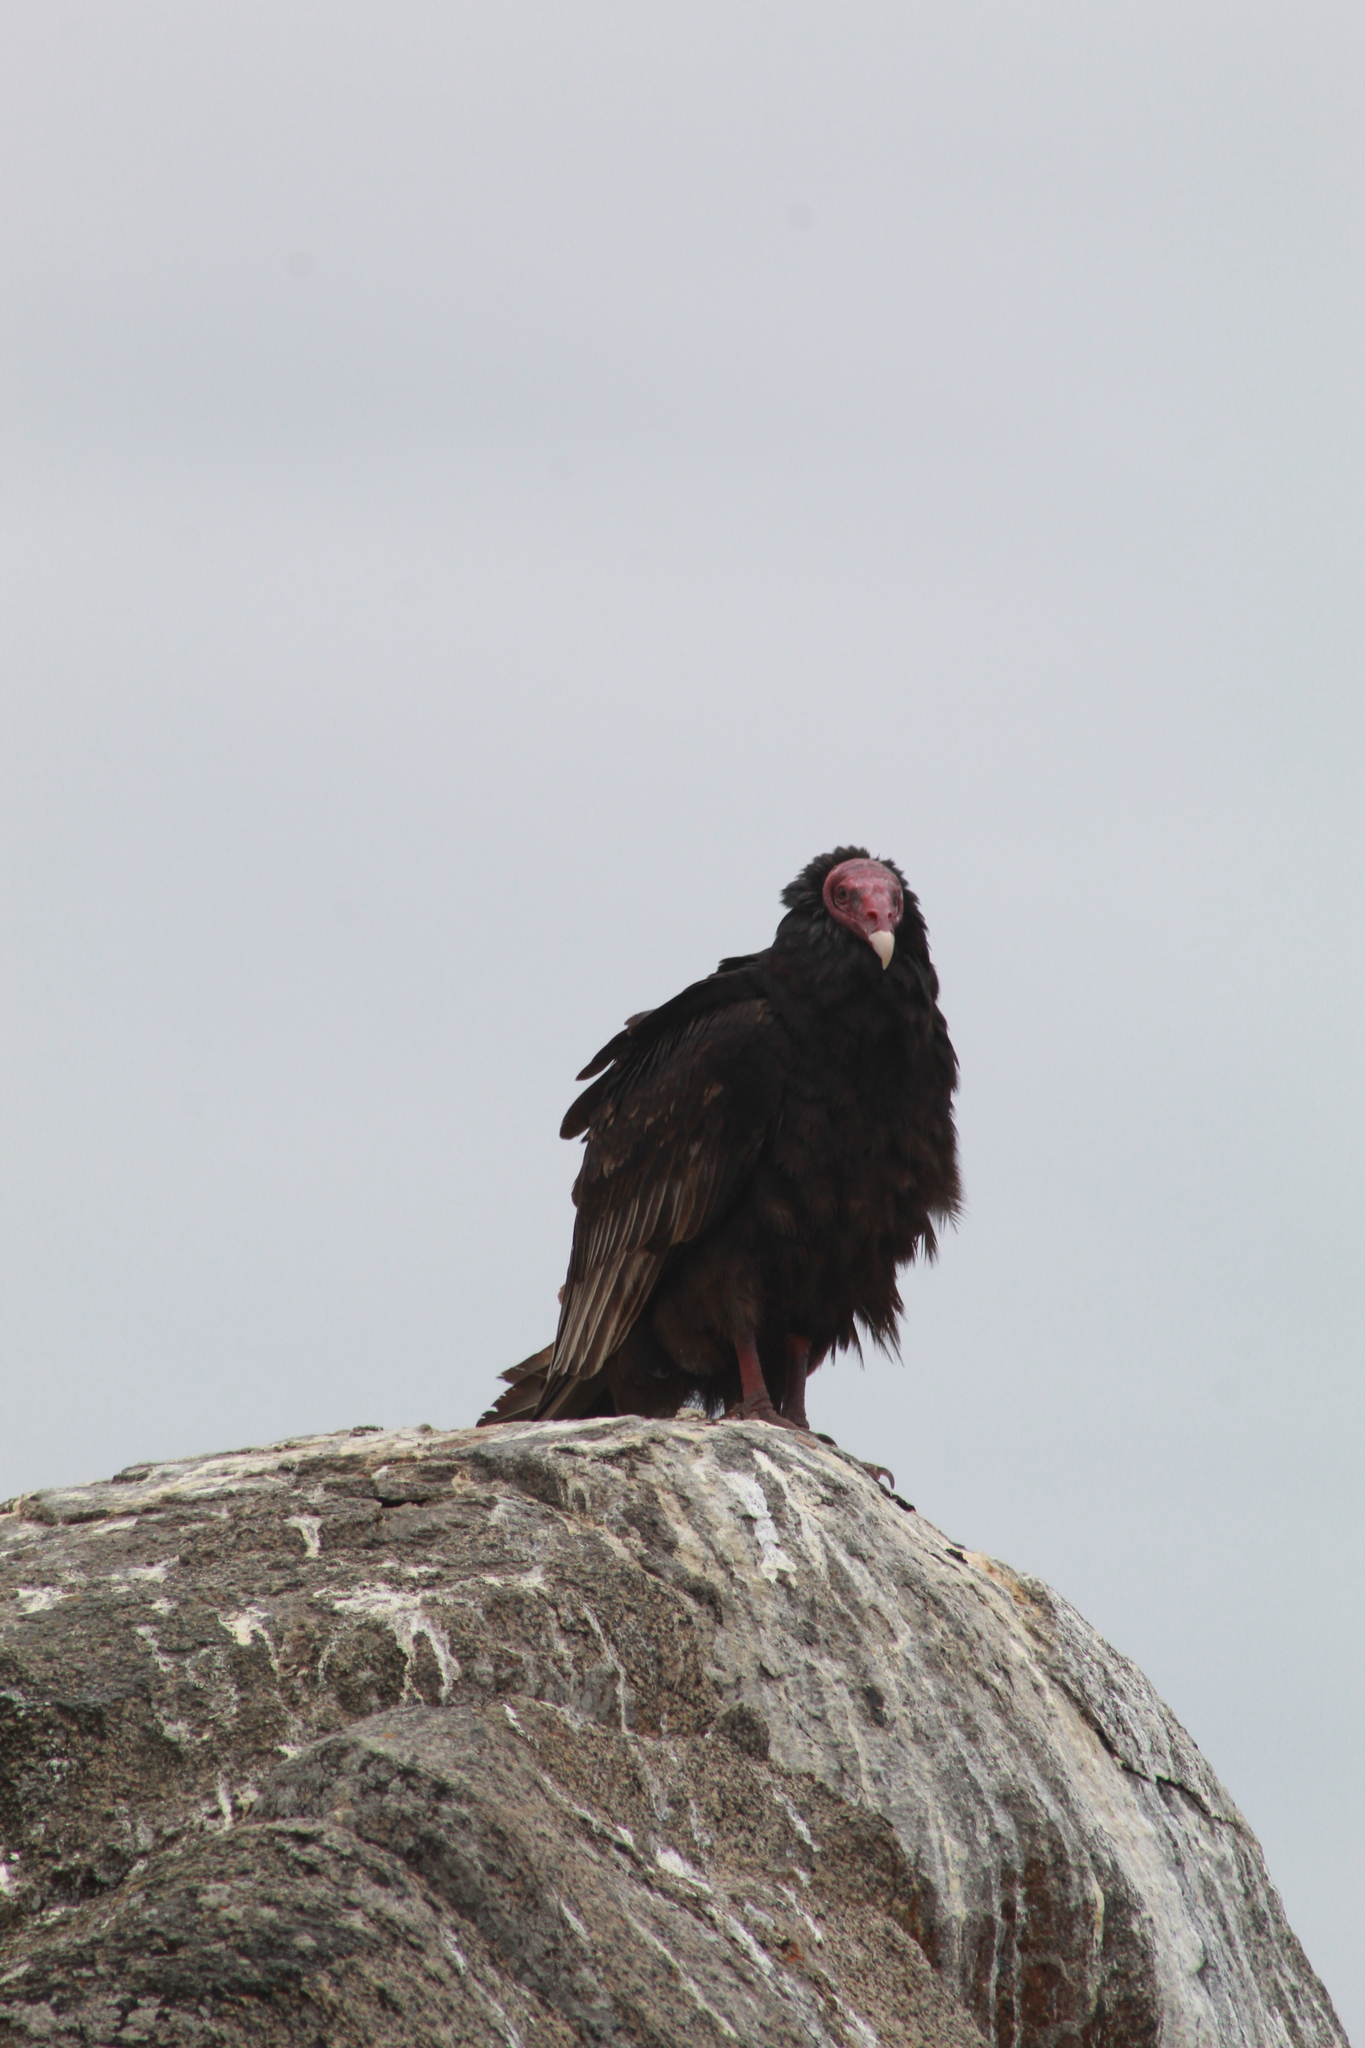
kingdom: Animalia
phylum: Chordata
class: Aves
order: Accipitriformes
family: Cathartidae
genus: Cathartes
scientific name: Cathartes aura
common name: Turkey vulture
